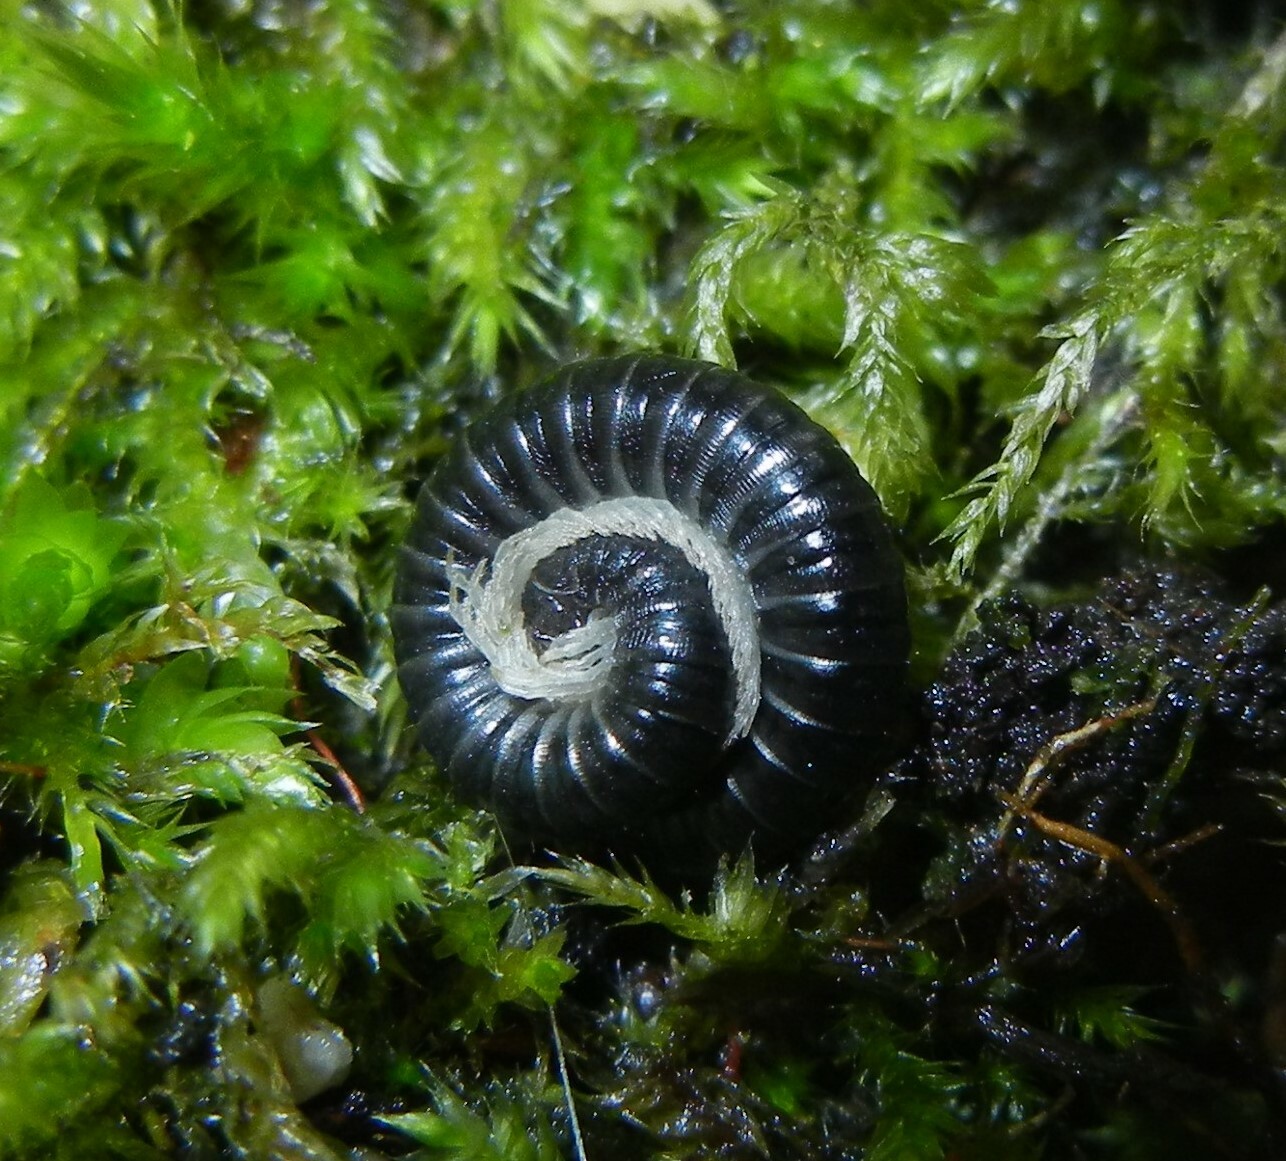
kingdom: Animalia
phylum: Arthropoda
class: Diplopoda
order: Julida
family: Julidae
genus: Tachypodoiulus
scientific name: Tachypodoiulus niger
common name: White-legged snake millipede
